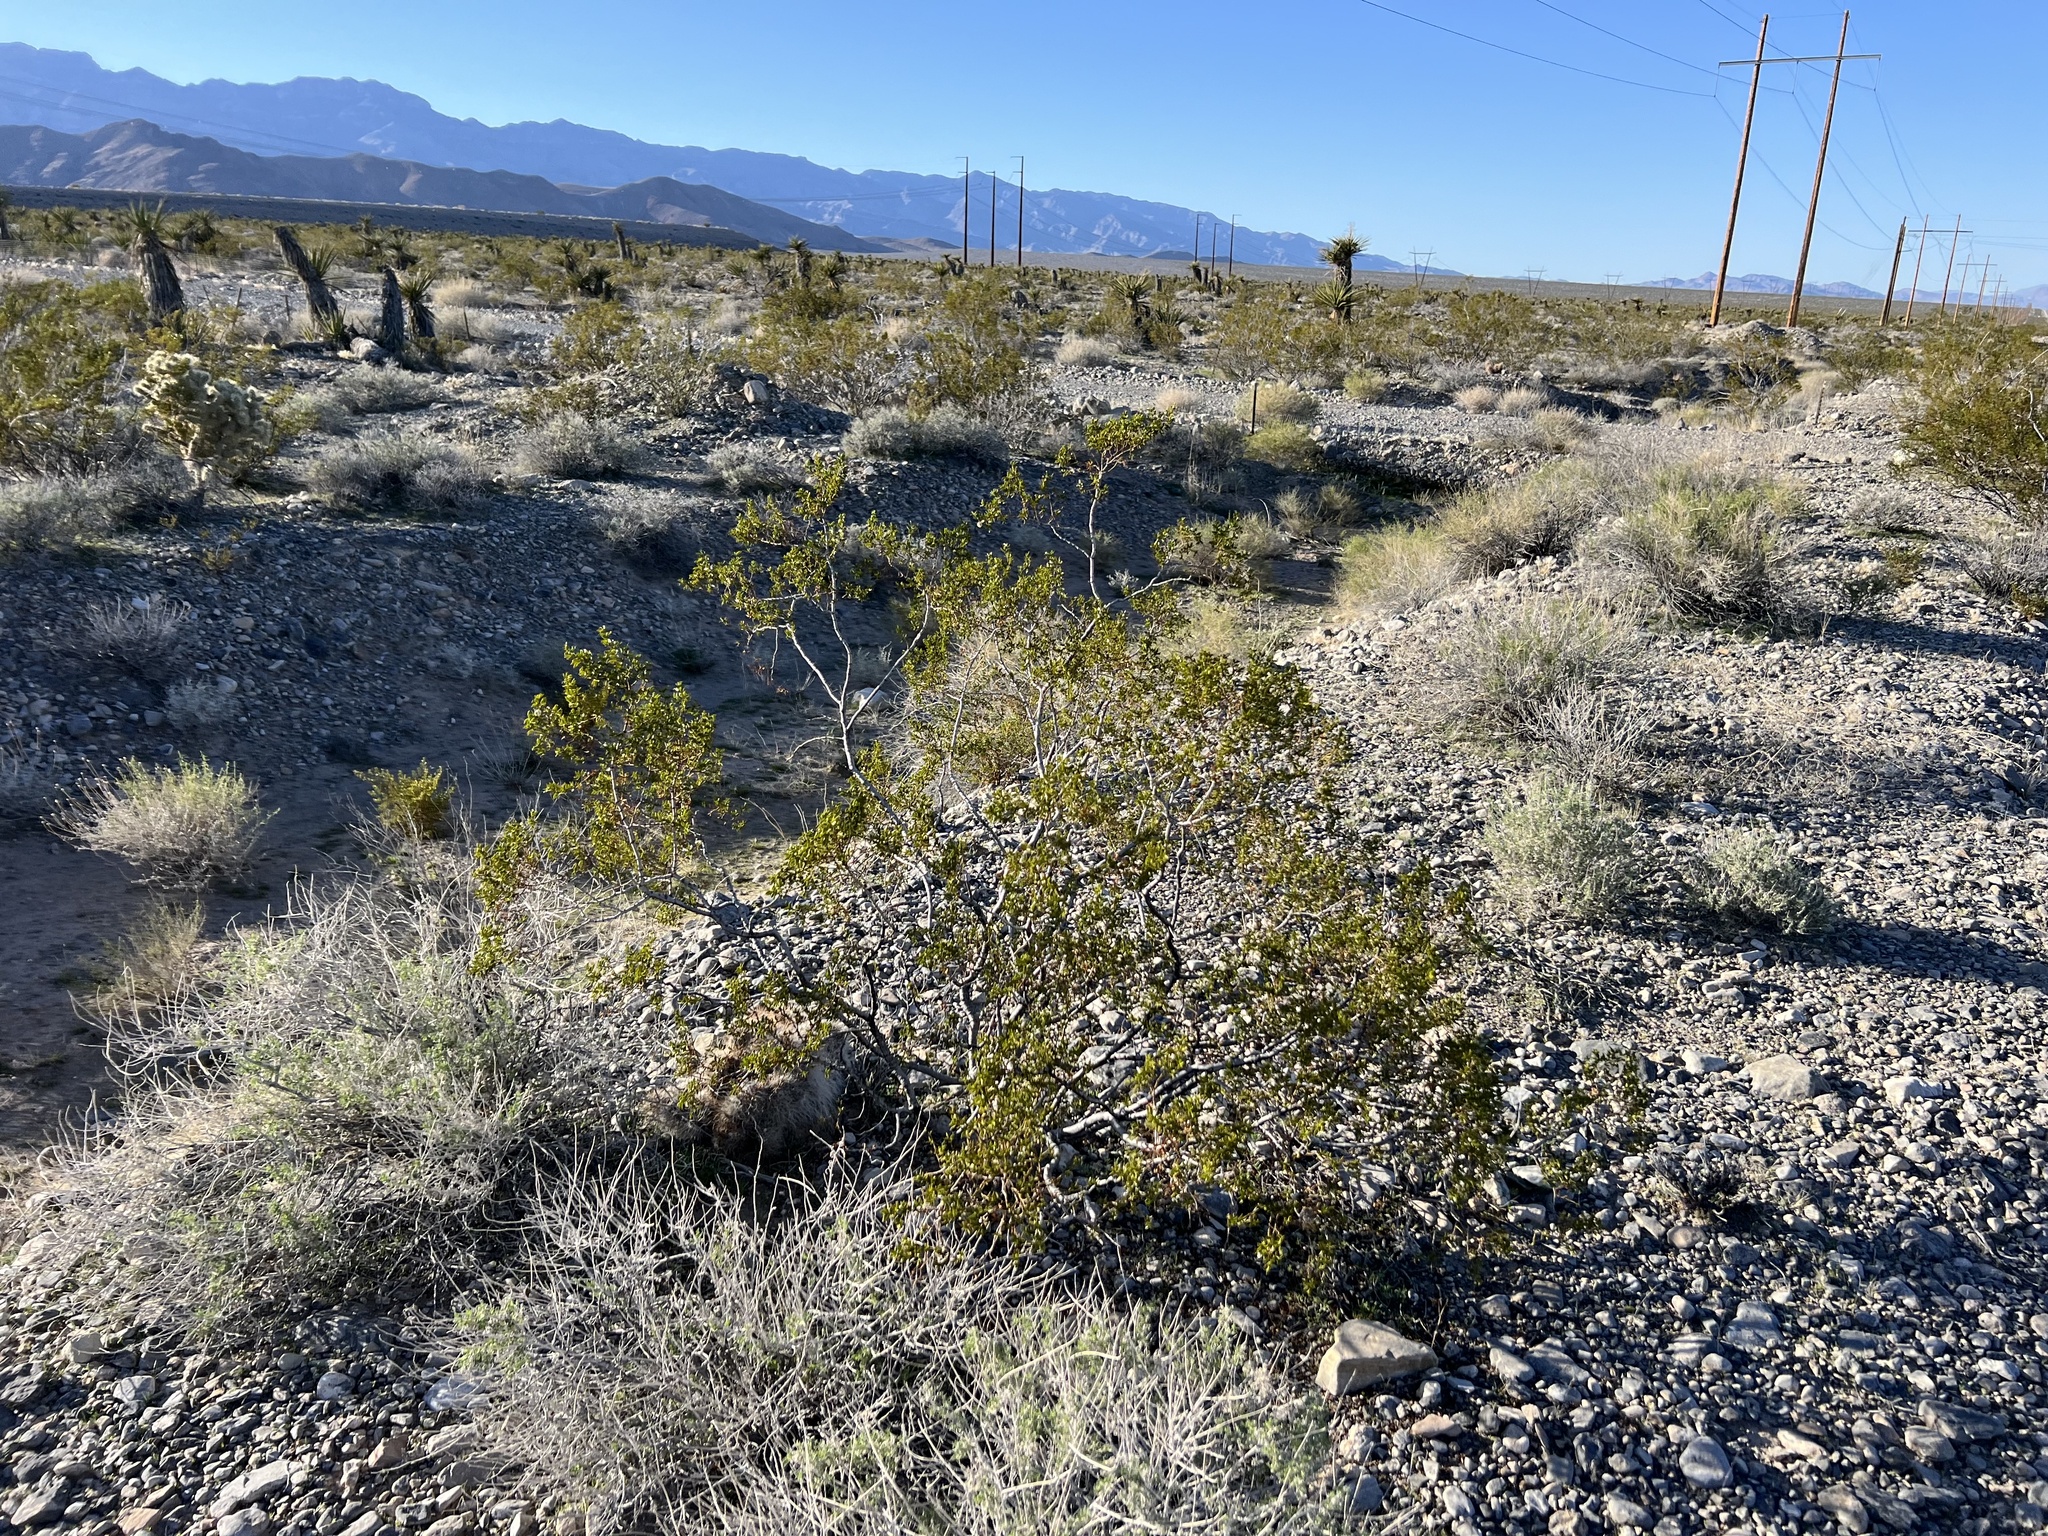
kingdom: Plantae
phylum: Tracheophyta
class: Magnoliopsida
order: Zygophyllales
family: Zygophyllaceae
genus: Larrea
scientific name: Larrea tridentata
